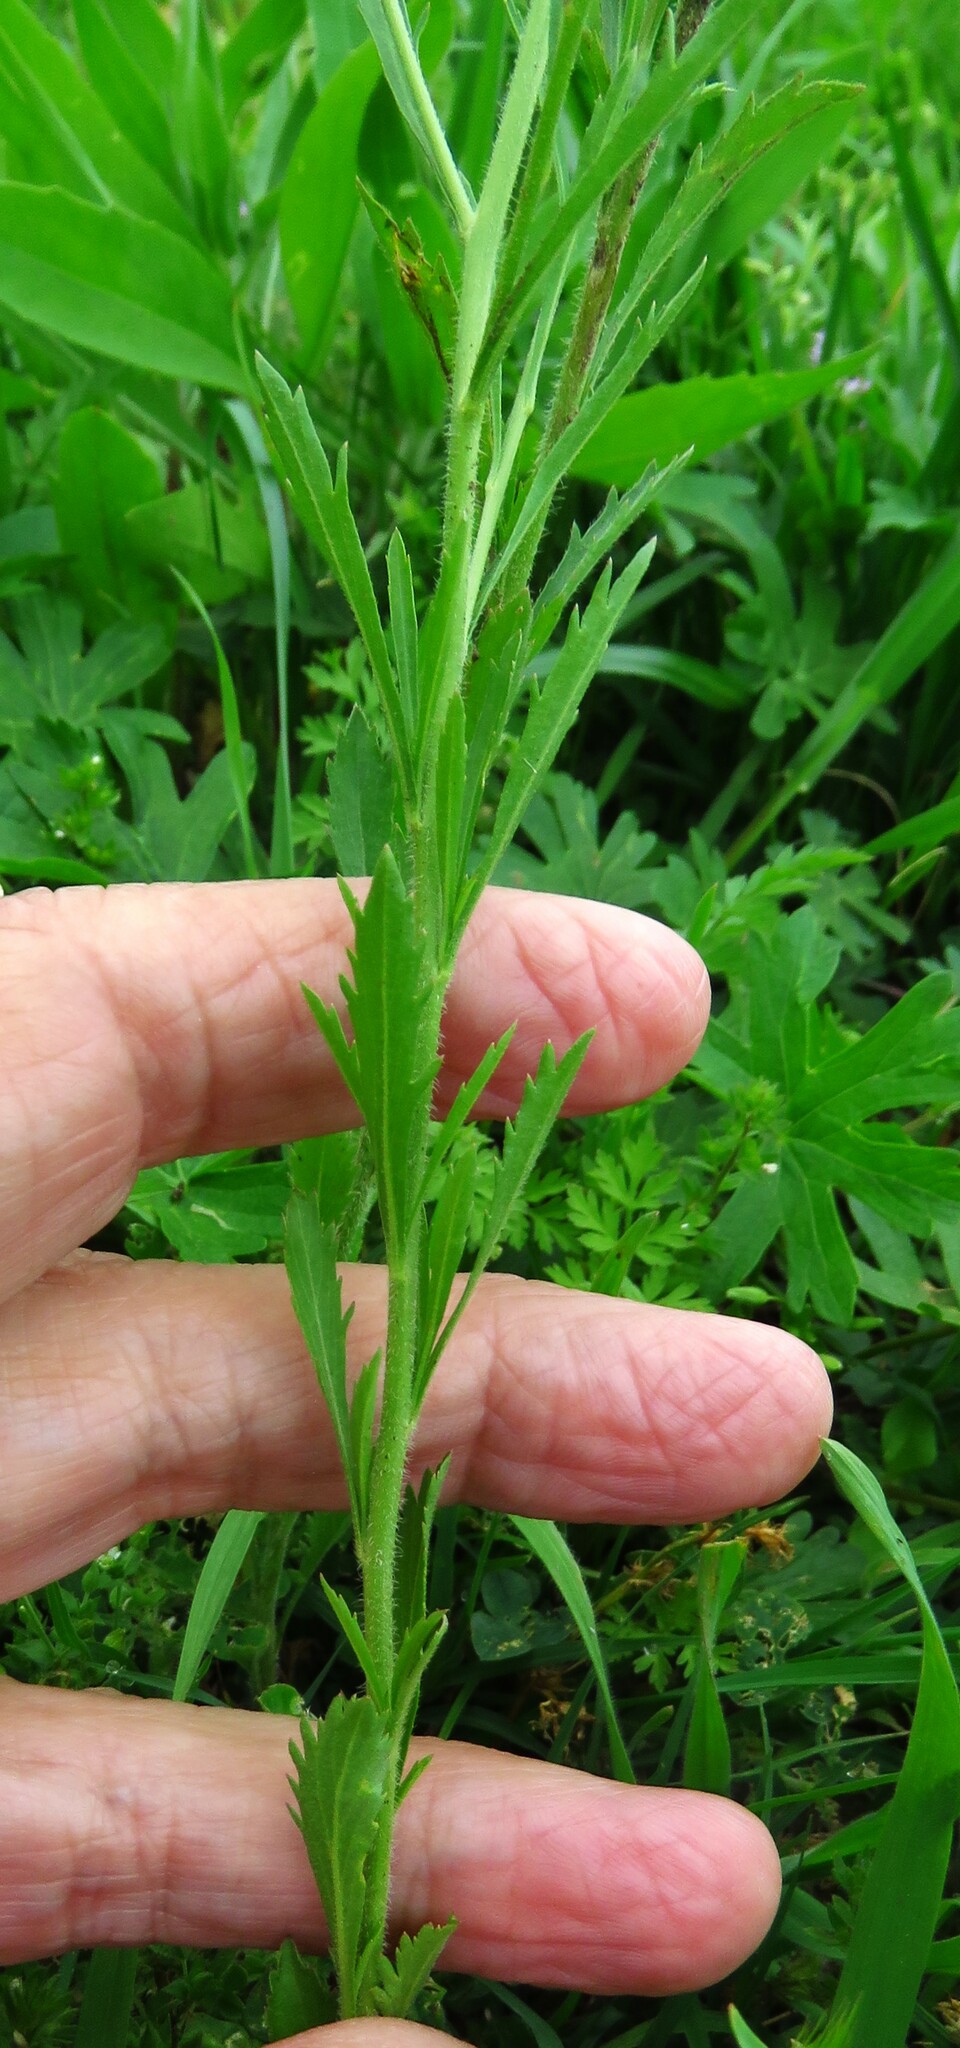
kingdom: Plantae
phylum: Tracheophyta
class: Magnoliopsida
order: Brassicales
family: Brassicaceae
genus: Lepidium
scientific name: Lepidium densiflorum
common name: Miner's pepperwort
